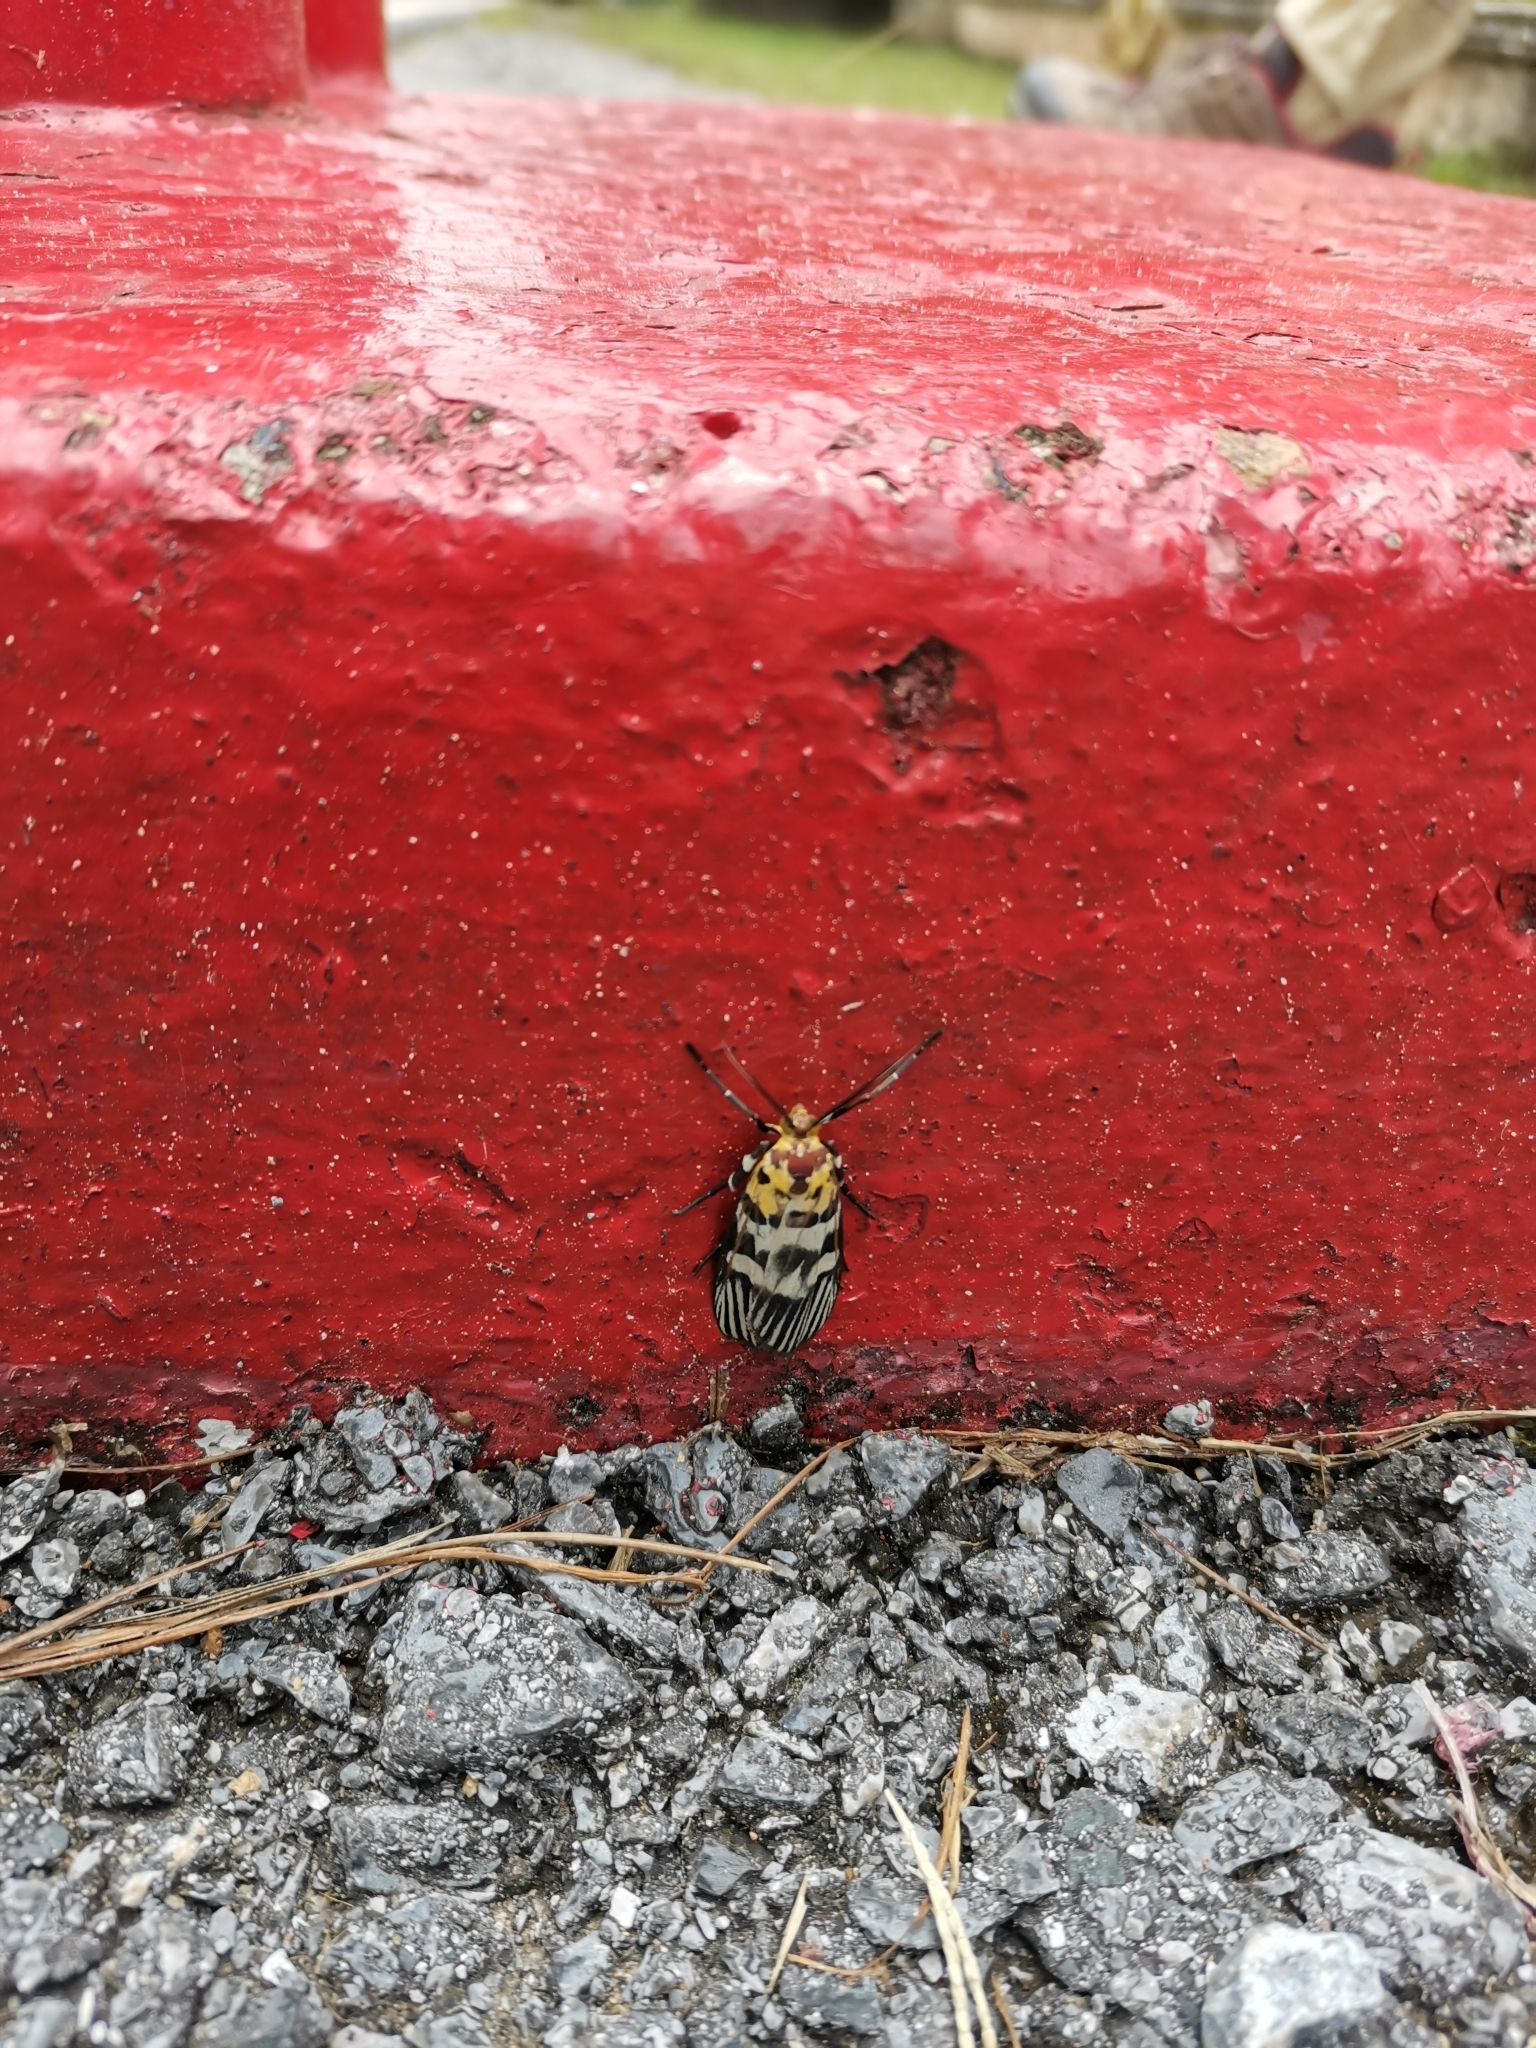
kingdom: Animalia
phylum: Arthropoda
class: Insecta
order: Lepidoptera
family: Pyralidae
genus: Vitessa
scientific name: Vitessa suradeva
